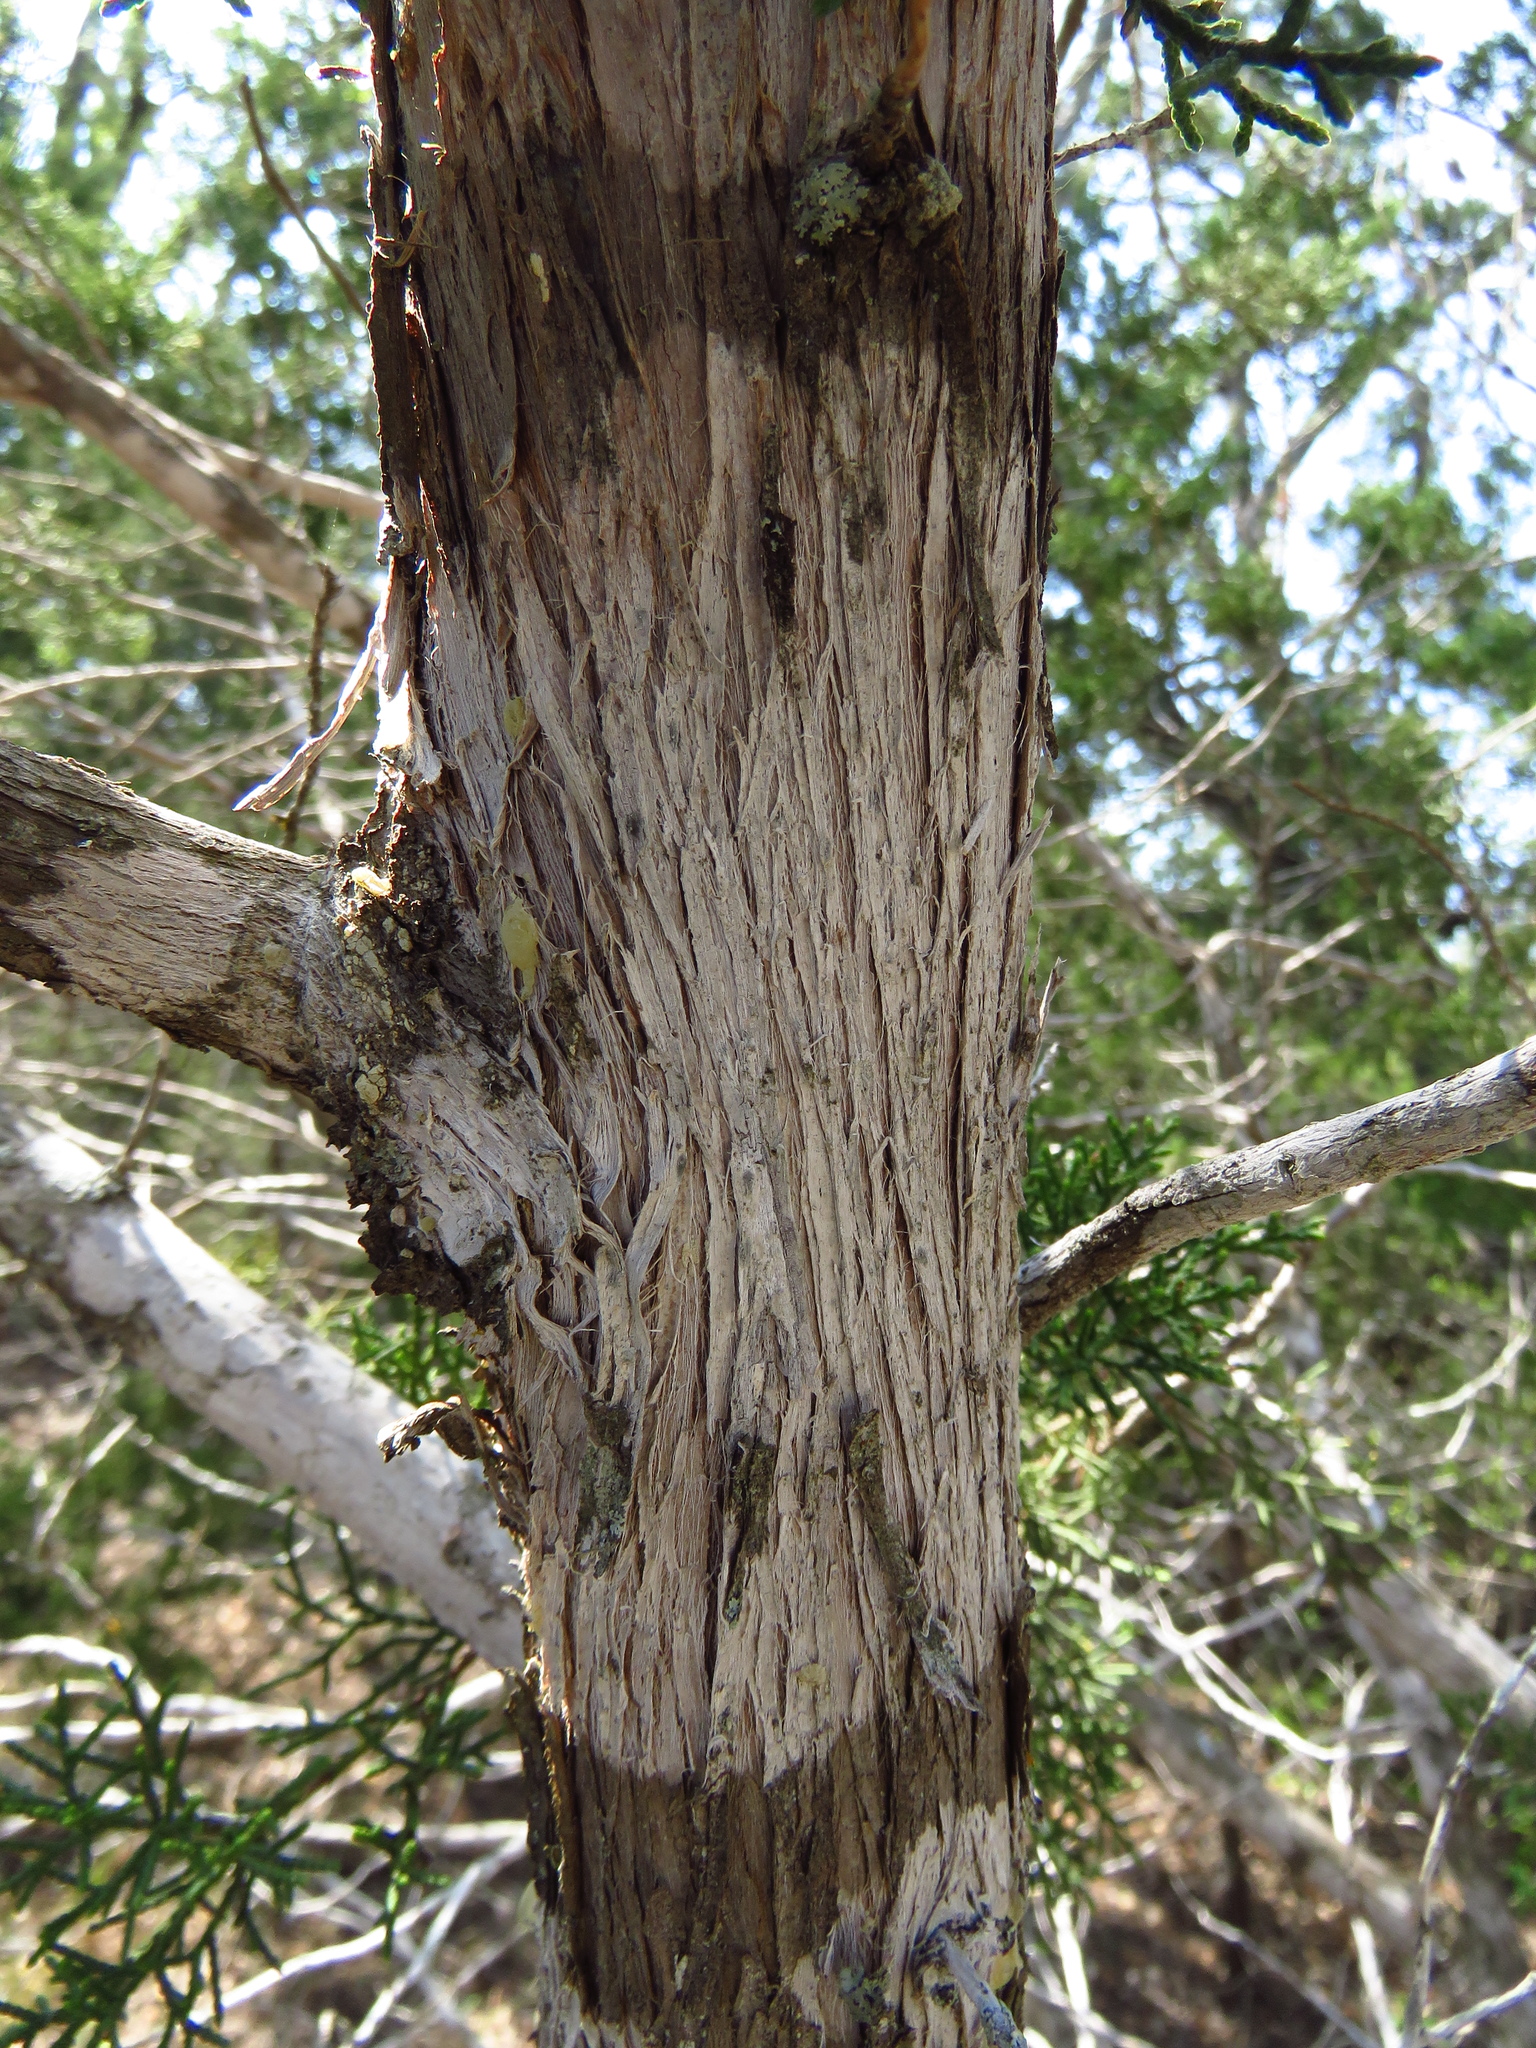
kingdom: Fungi
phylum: Ascomycota
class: Lecanoromycetes
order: Ostropales
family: Stictidaceae
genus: Robergea
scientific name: Robergea
